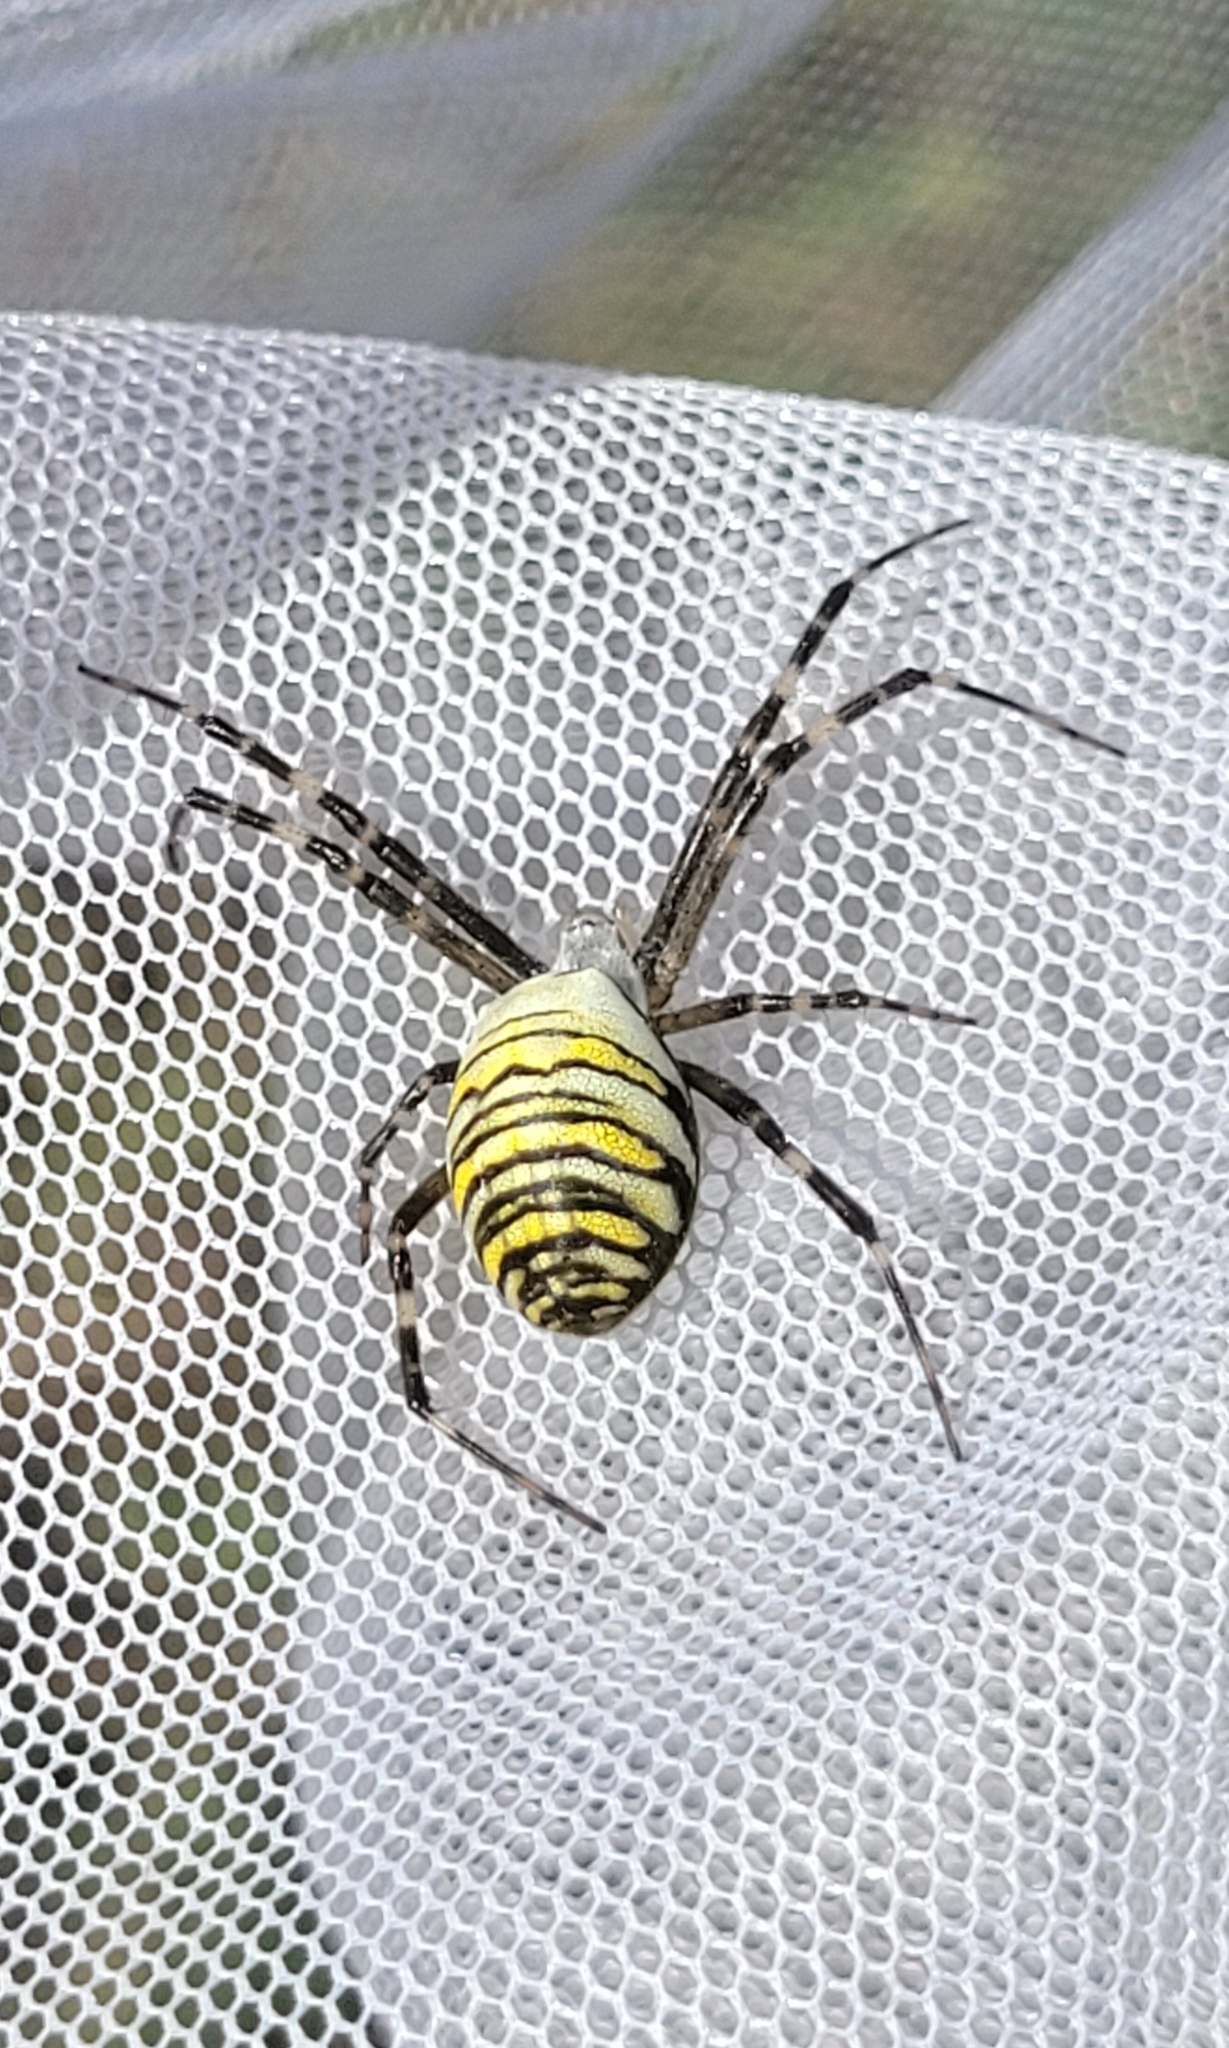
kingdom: Animalia
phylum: Arthropoda
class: Arachnida
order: Araneae
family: Araneidae
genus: Argiope
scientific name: Argiope bruennichi
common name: Wasp spider
